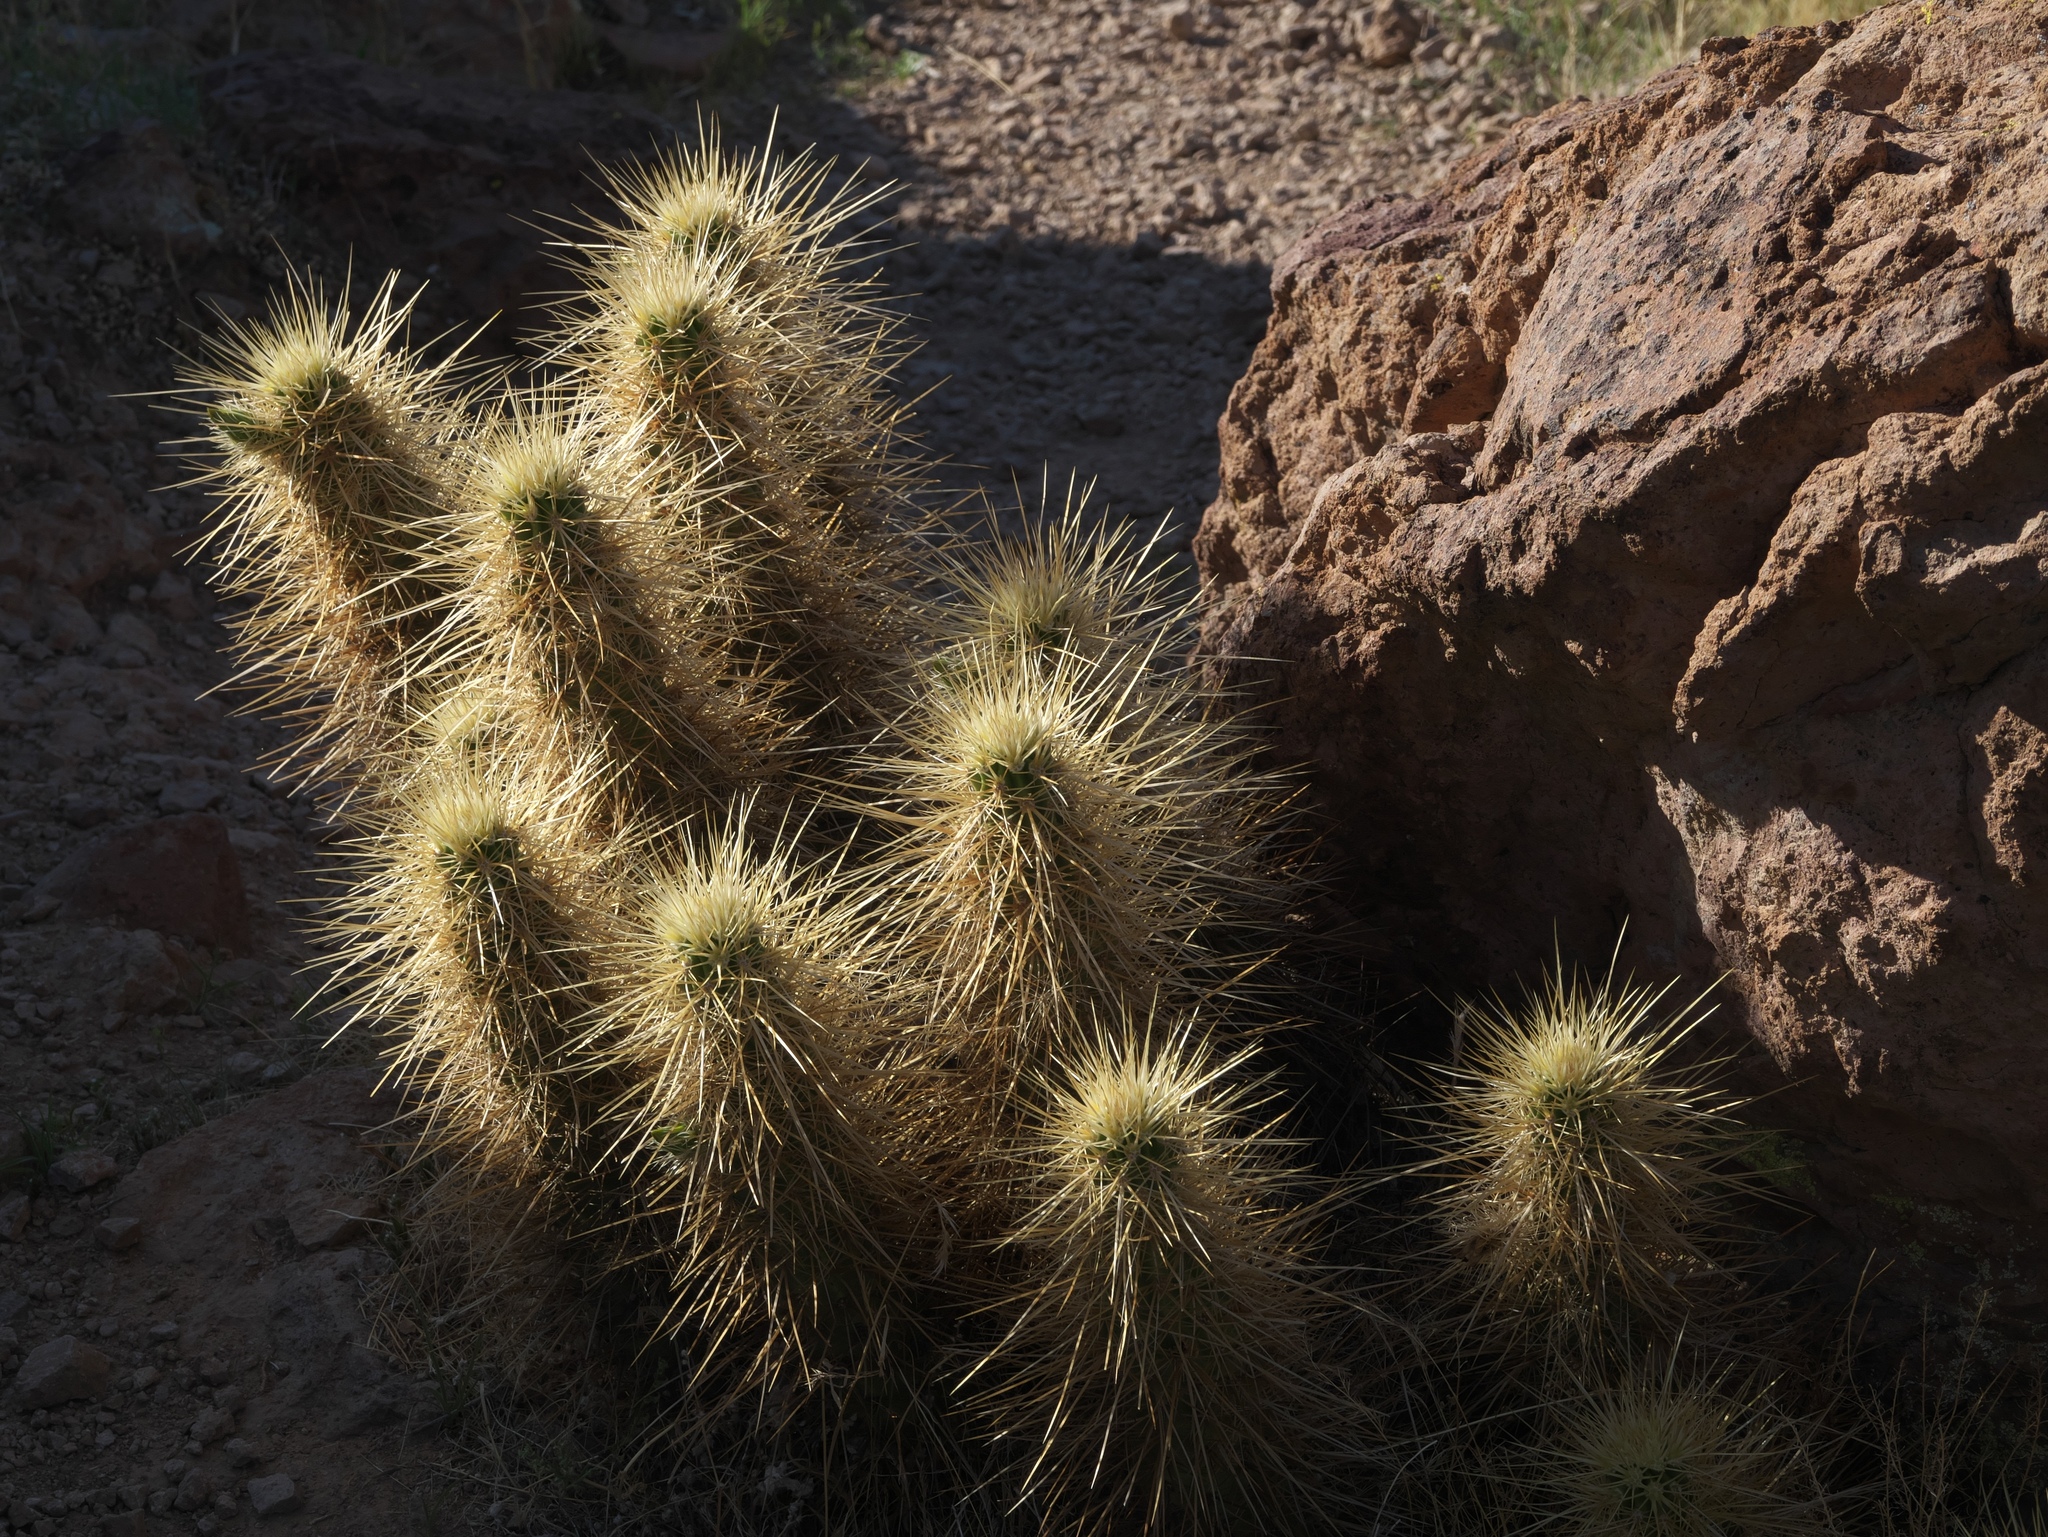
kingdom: Plantae
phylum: Tracheophyta
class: Magnoliopsida
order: Caryophyllales
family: Cactaceae
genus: Echinocereus
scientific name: Echinocereus nicholii
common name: Nichol's hedgehog cactus
